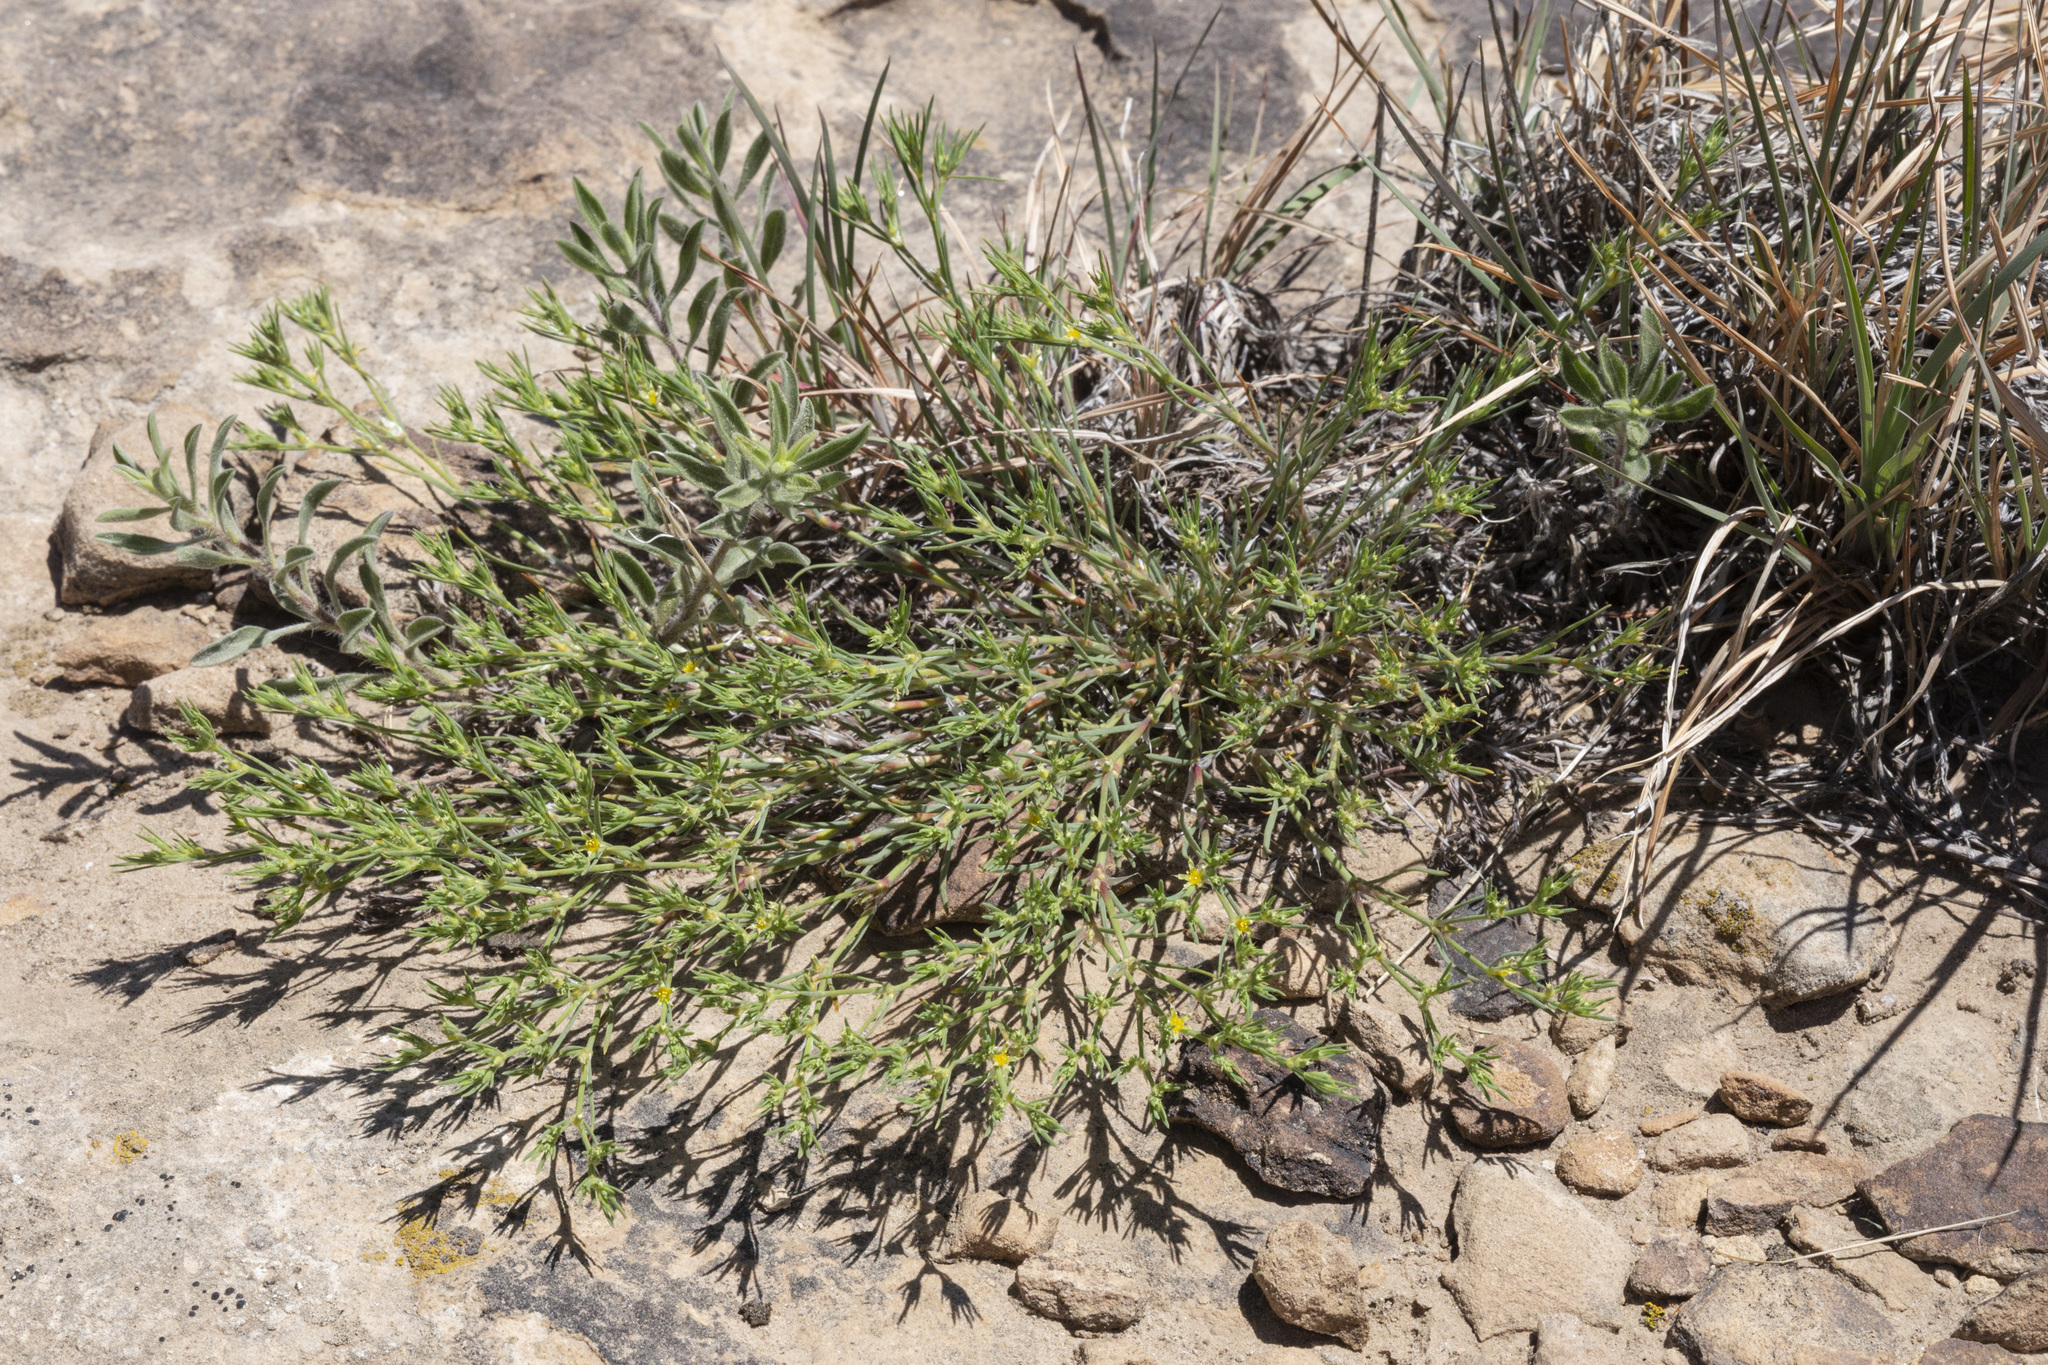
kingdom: Plantae
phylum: Tracheophyta
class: Magnoliopsida
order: Caryophyllales
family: Caryophyllaceae
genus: Paronychia
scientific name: Paronychia jamesii
